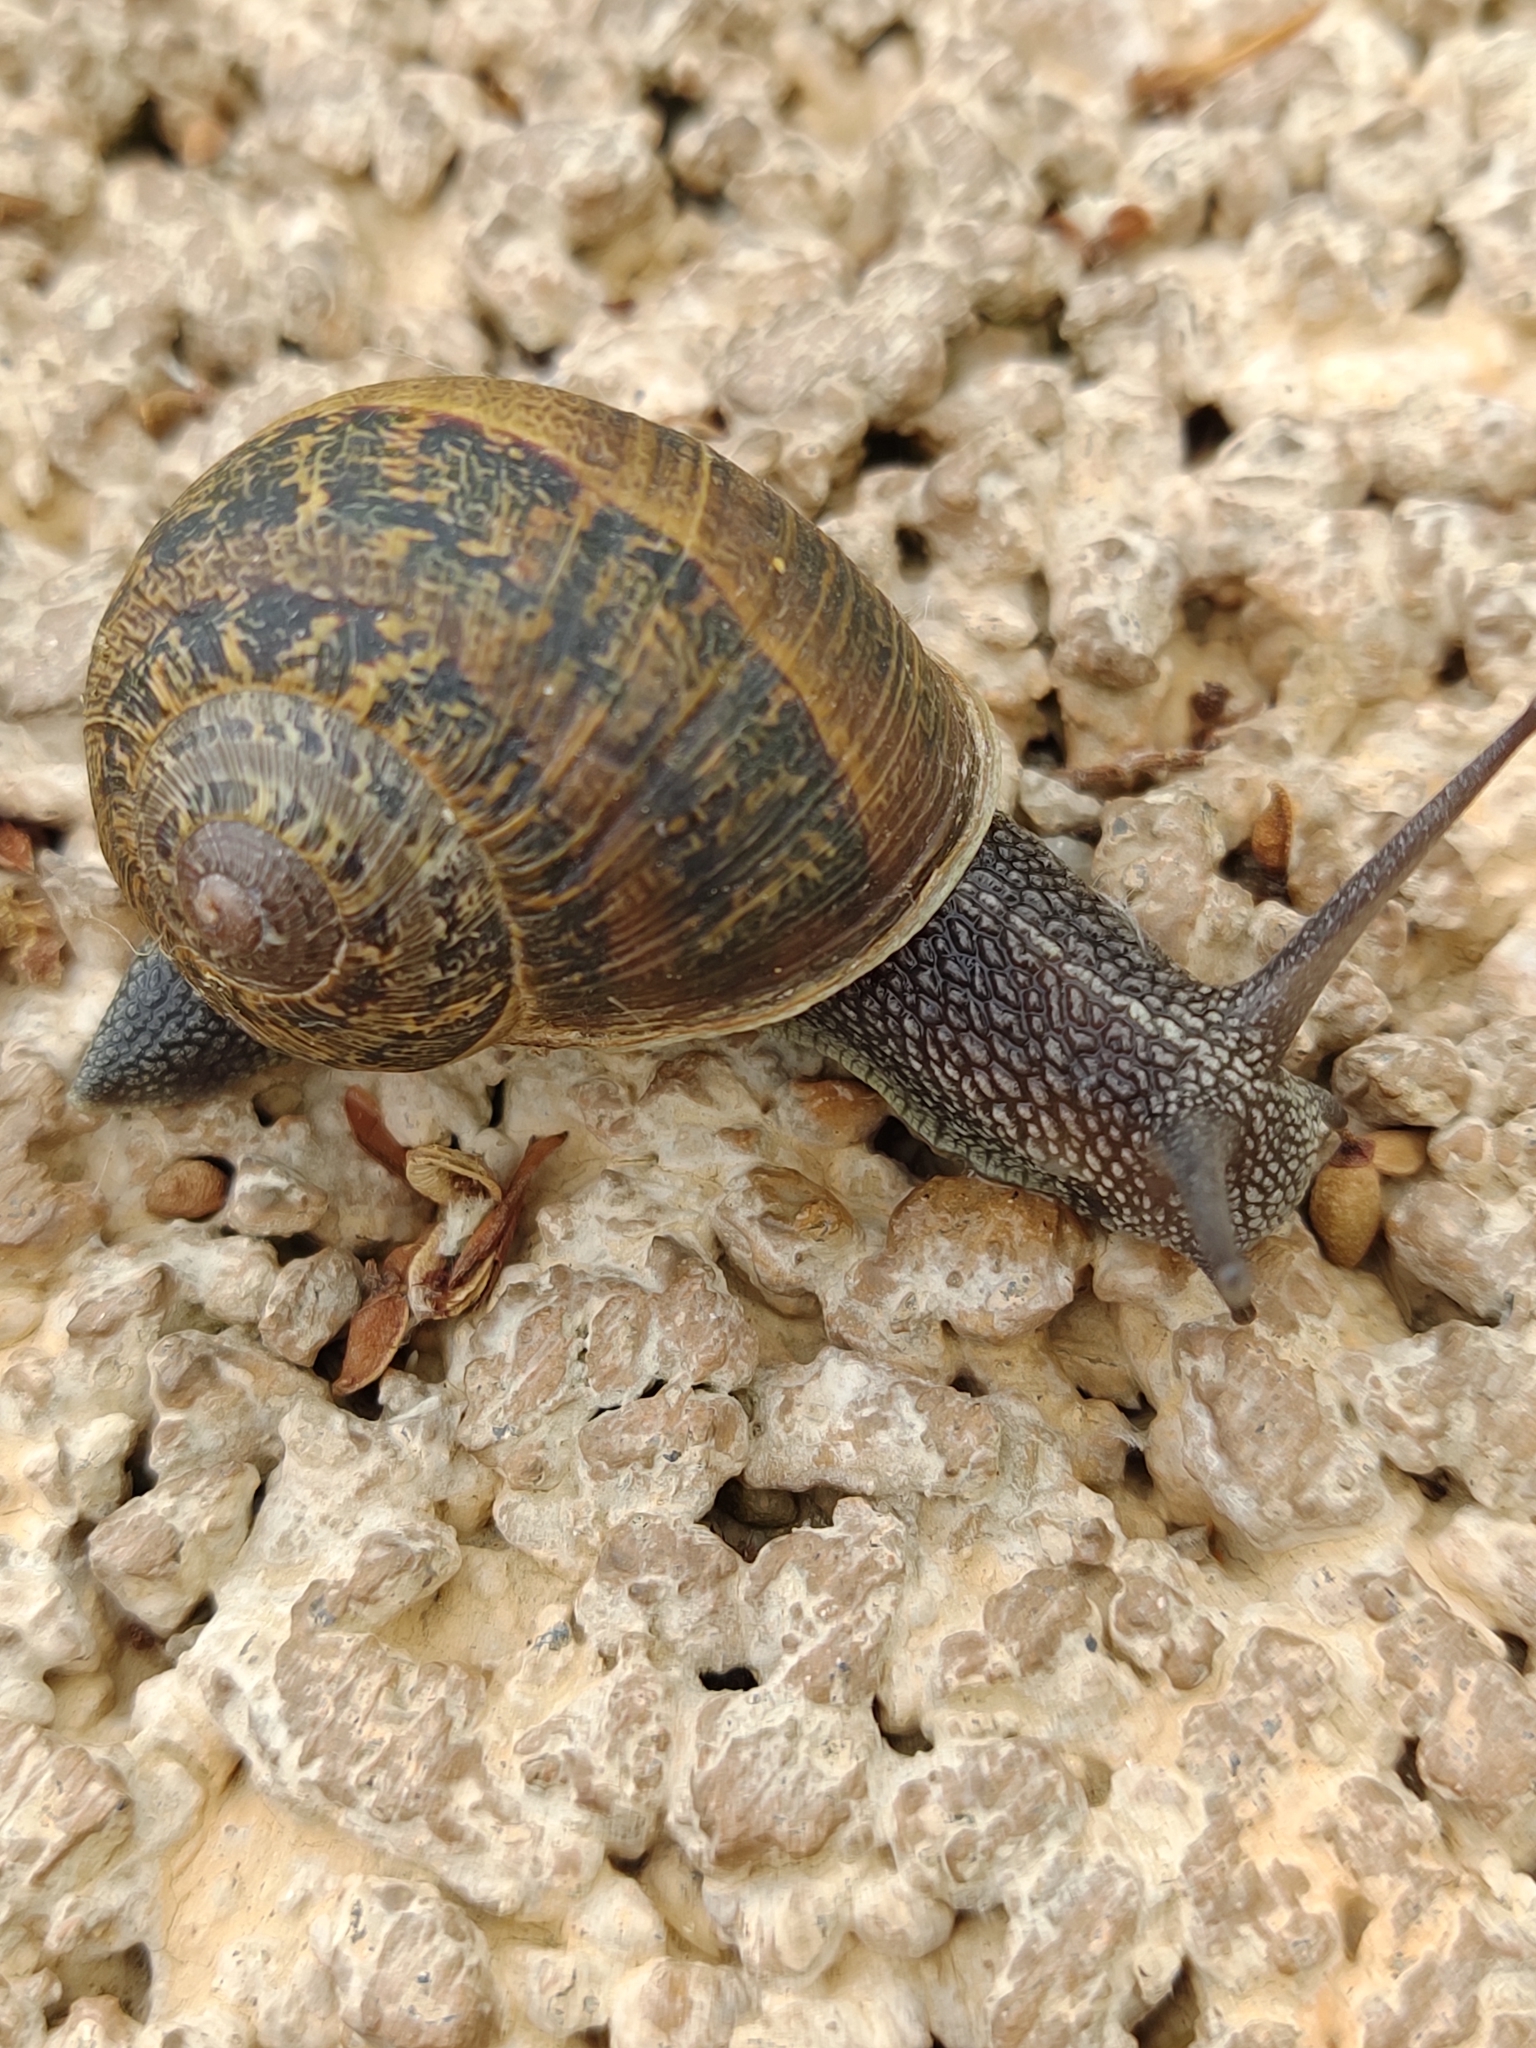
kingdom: Animalia
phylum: Mollusca
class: Gastropoda
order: Stylommatophora
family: Helicidae
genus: Cornu
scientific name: Cornu aspersum
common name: Brown garden snail
